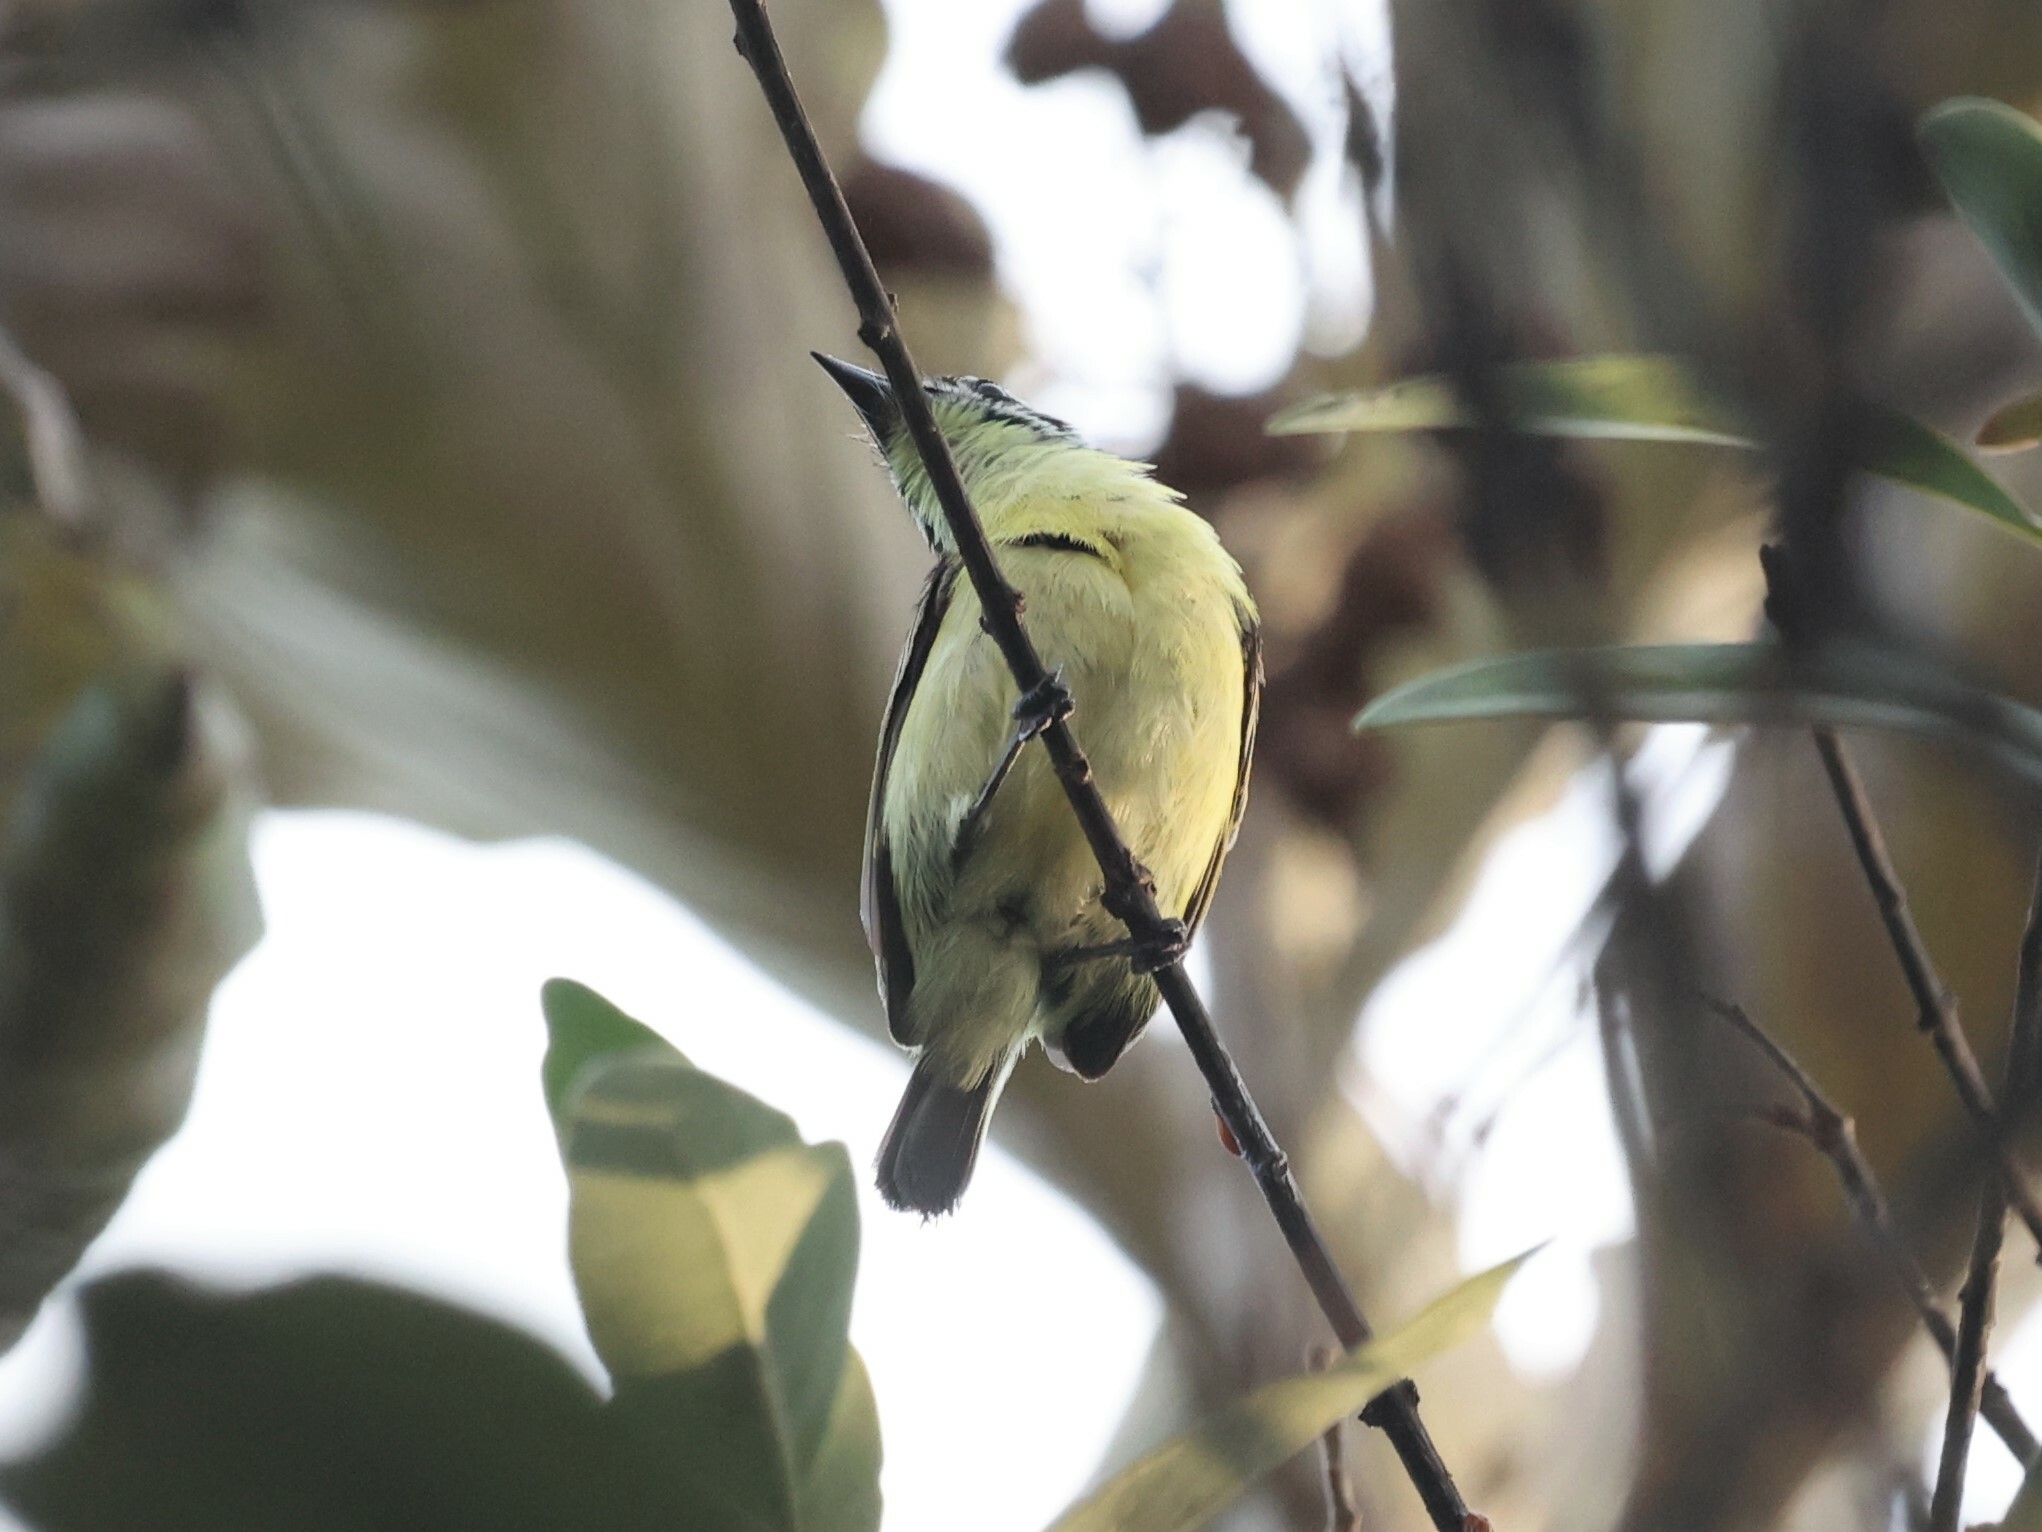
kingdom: Animalia
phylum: Chordata
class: Aves
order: Piciformes
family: Lybiidae
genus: Pogoniulus
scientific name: Pogoniulus chrysoconus
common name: Yellow-fronted tinkerbird
